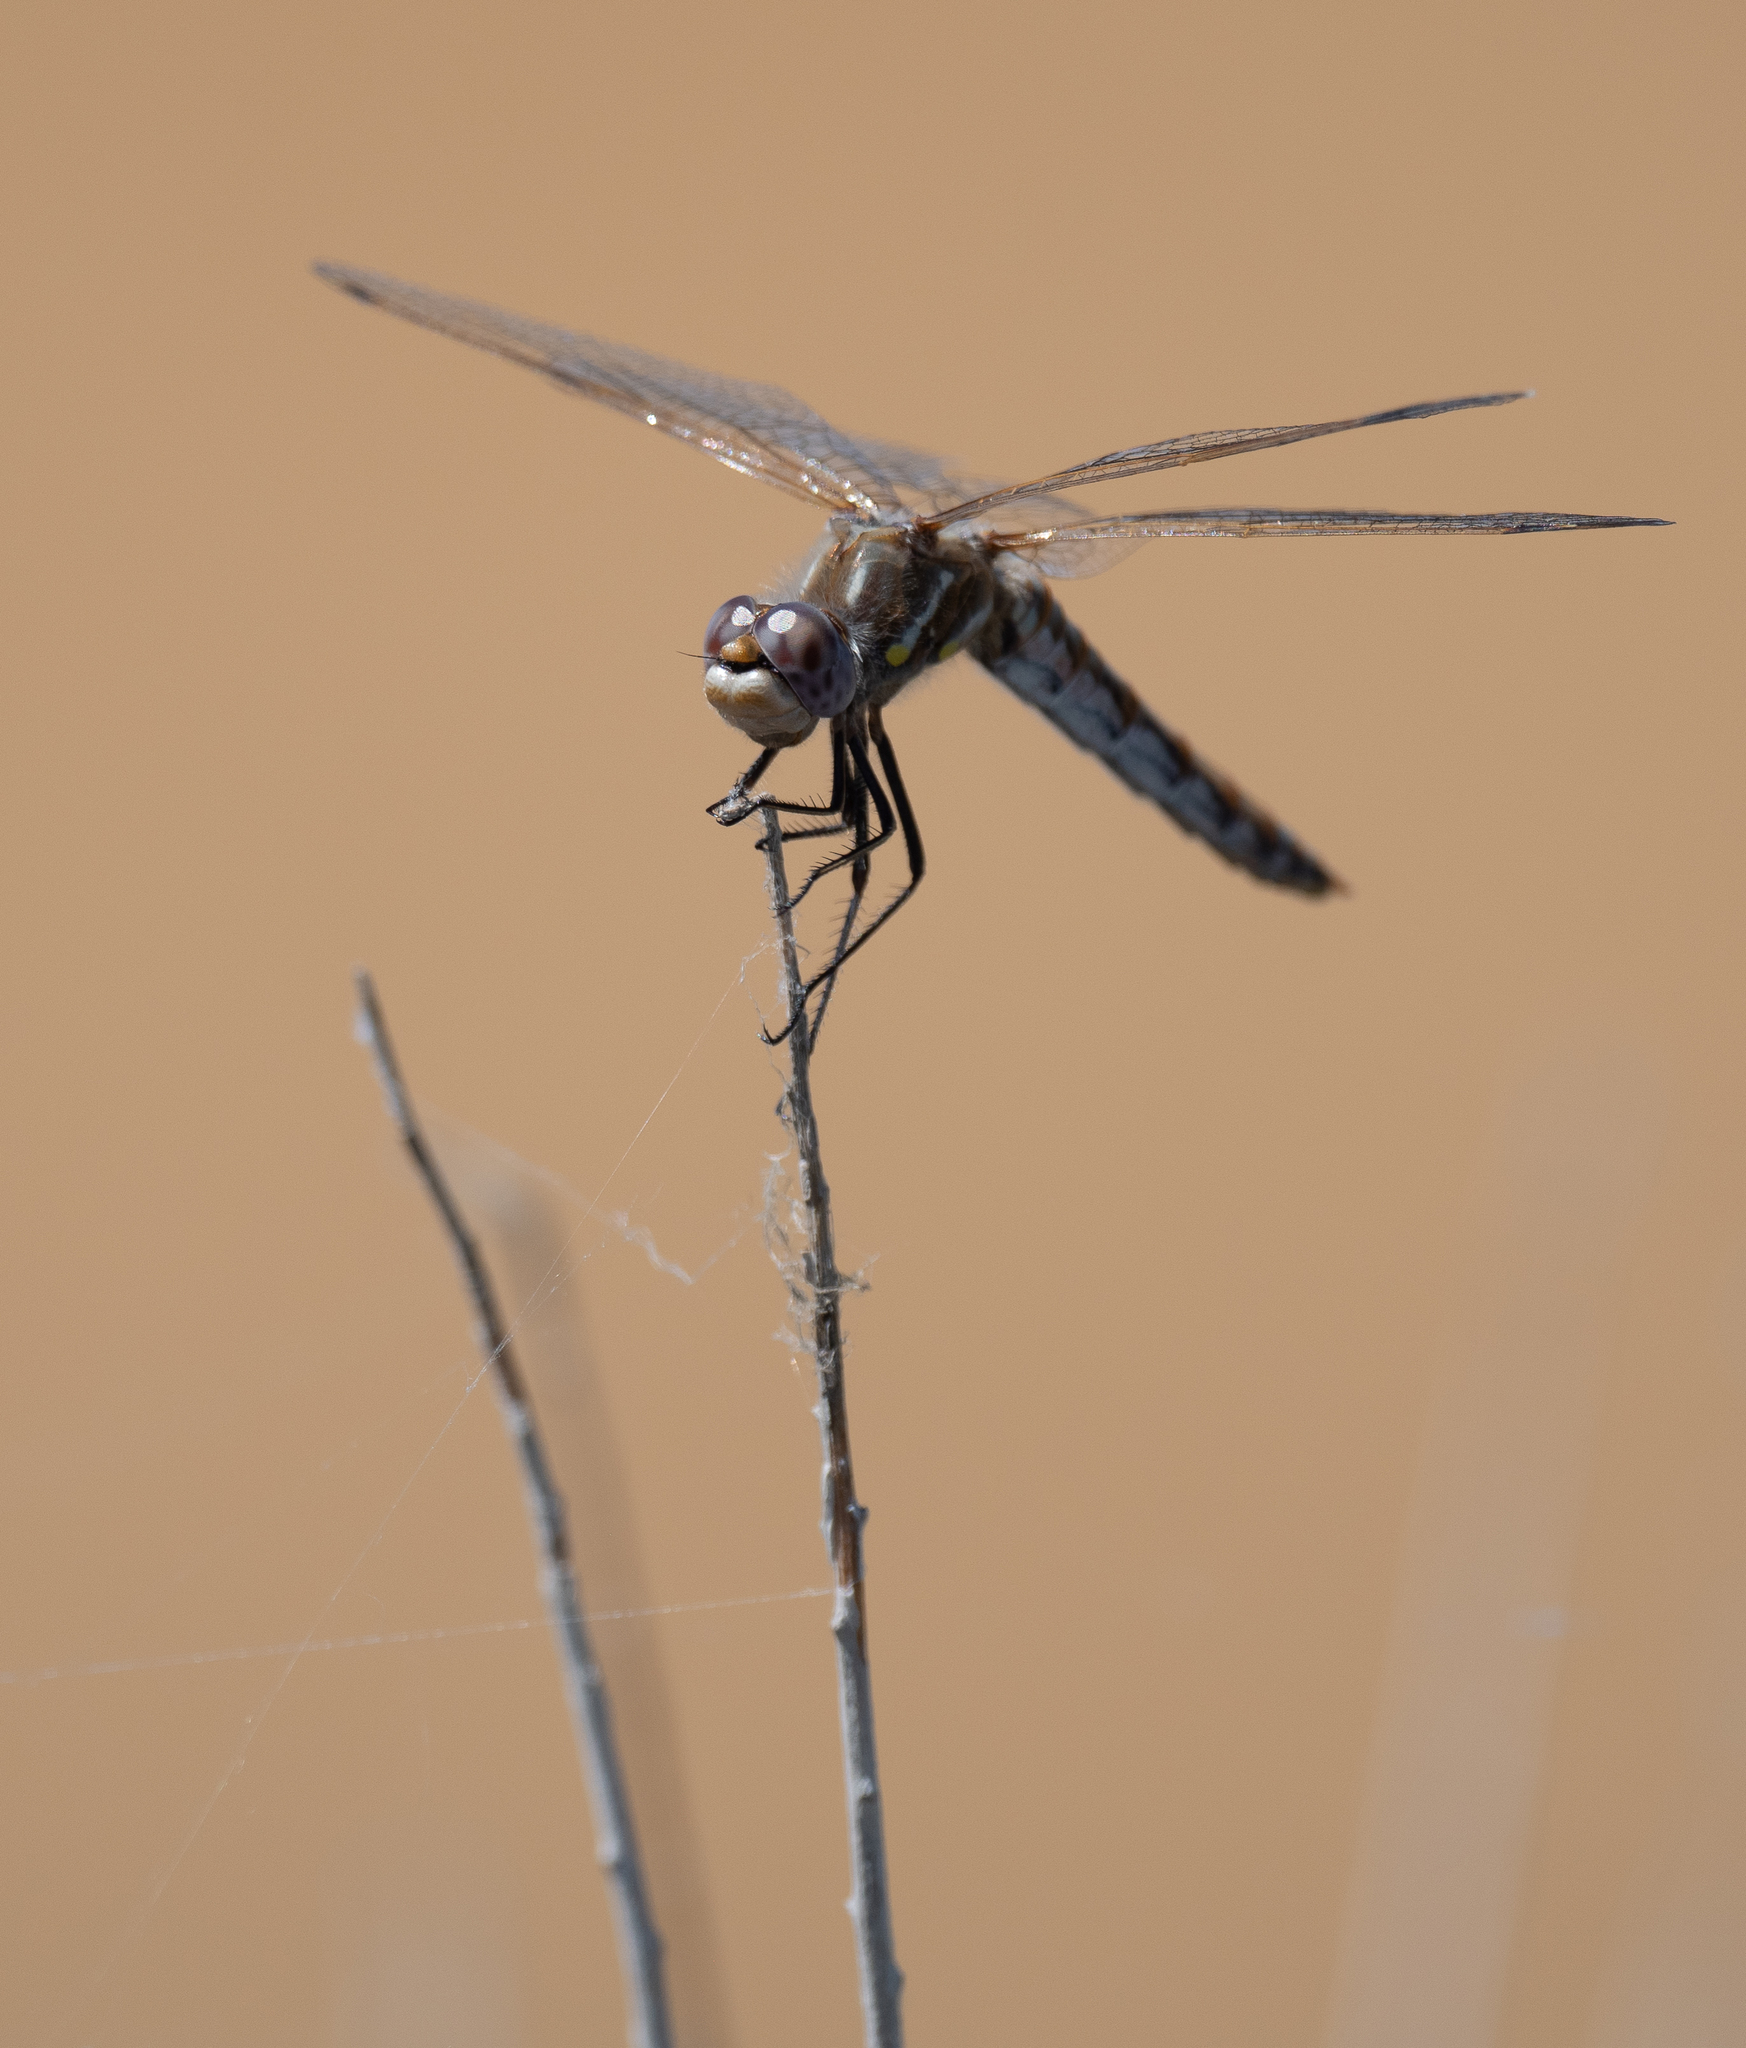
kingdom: Animalia
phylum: Arthropoda
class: Insecta
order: Odonata
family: Libellulidae
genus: Sympetrum
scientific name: Sympetrum corruptum
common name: Variegated meadowhawk
